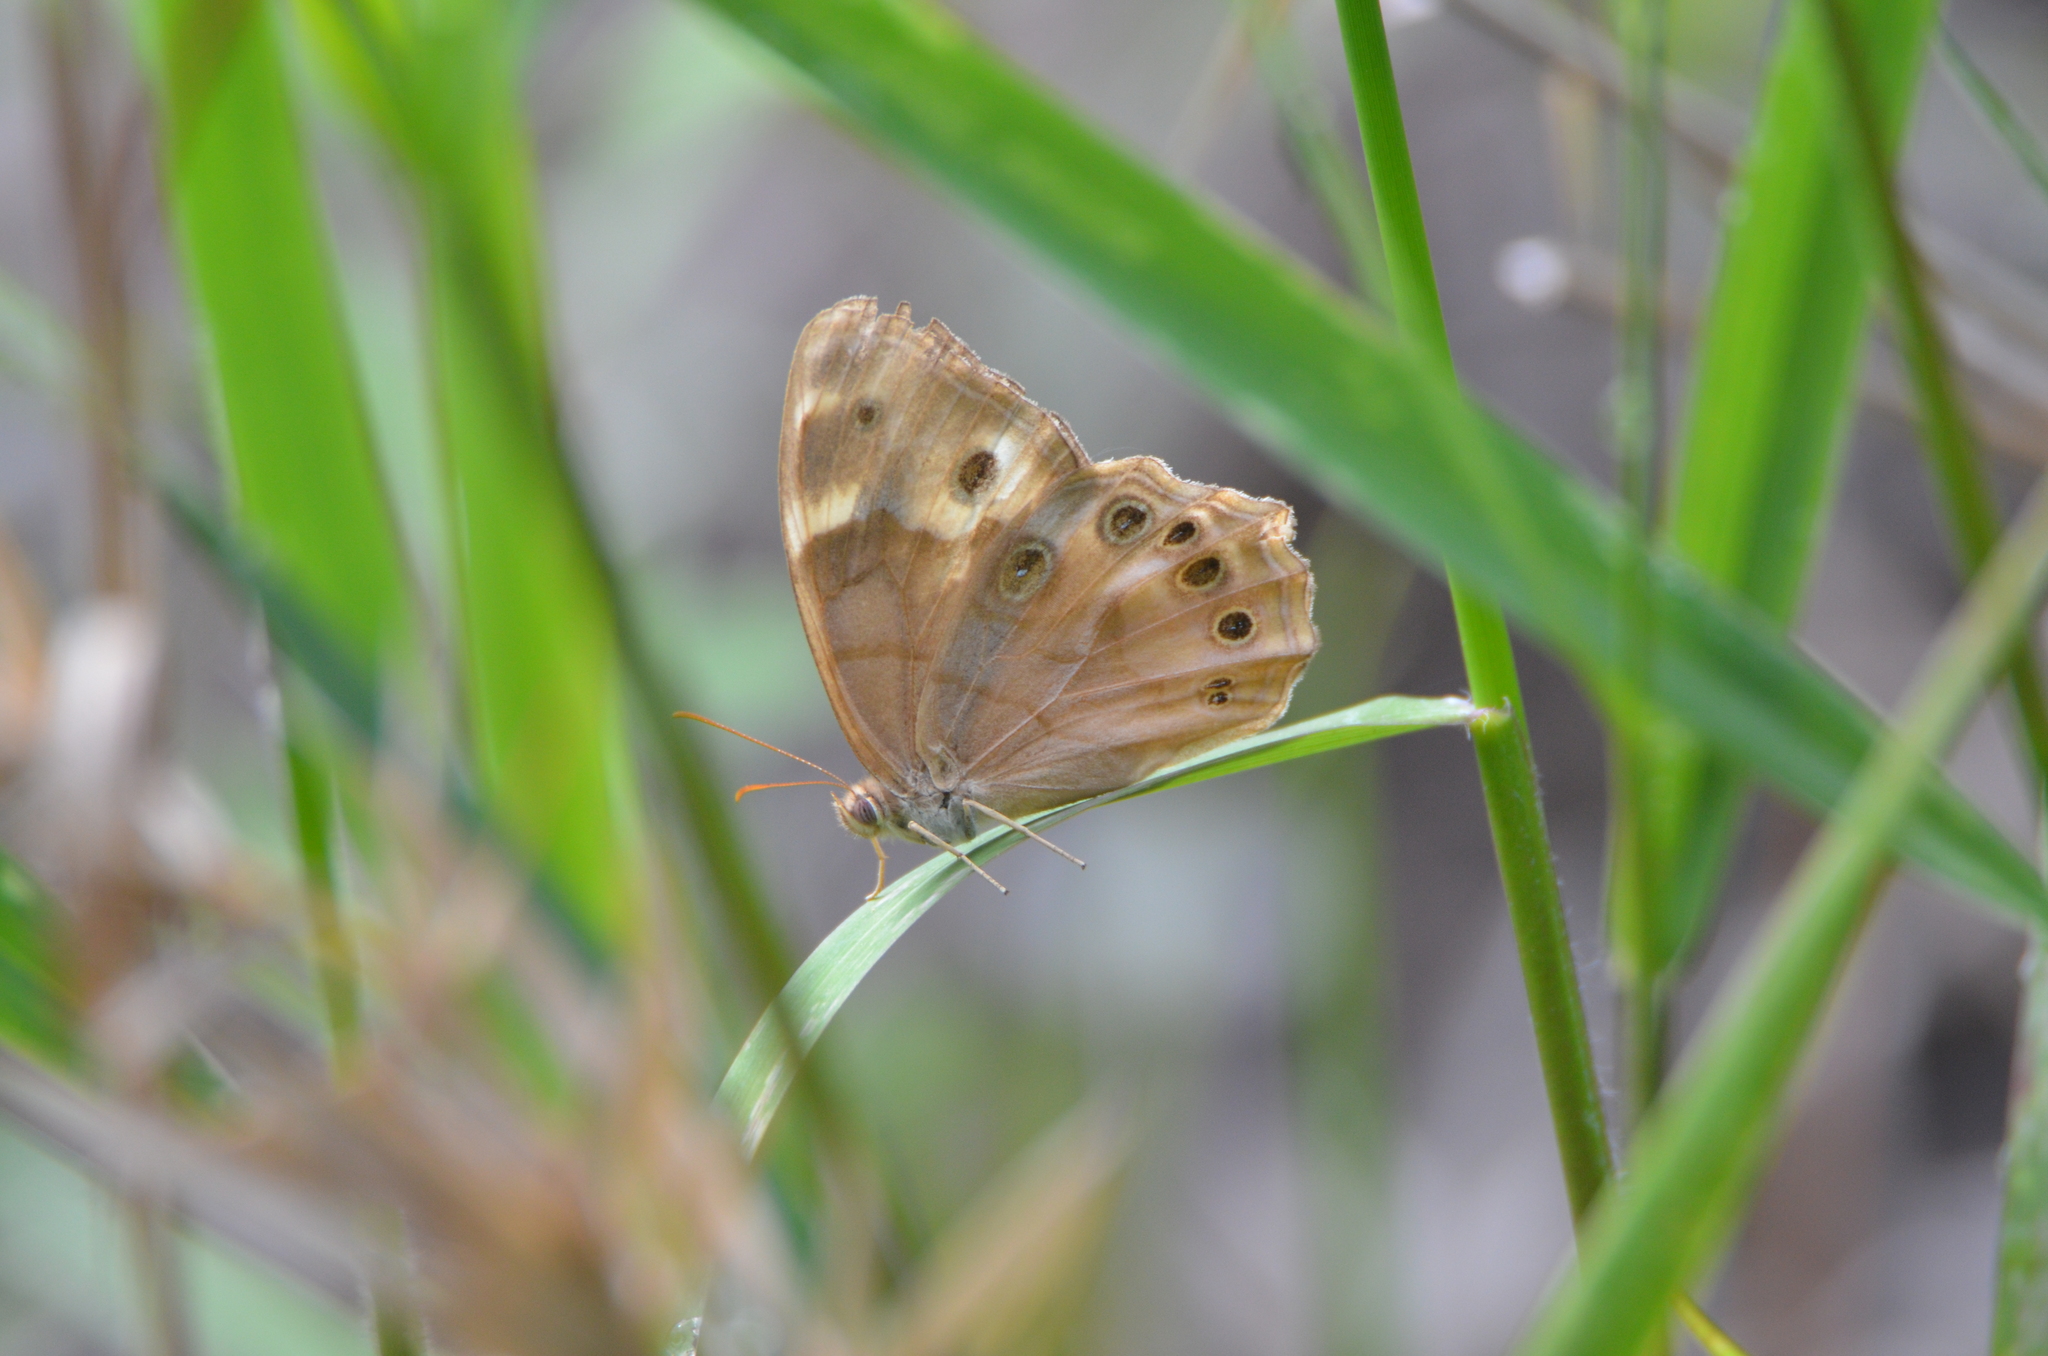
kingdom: Animalia
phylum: Arthropoda
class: Insecta
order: Lepidoptera
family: Nymphalidae
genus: Enodia
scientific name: Enodia portlandia
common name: Southern pearly-eye
